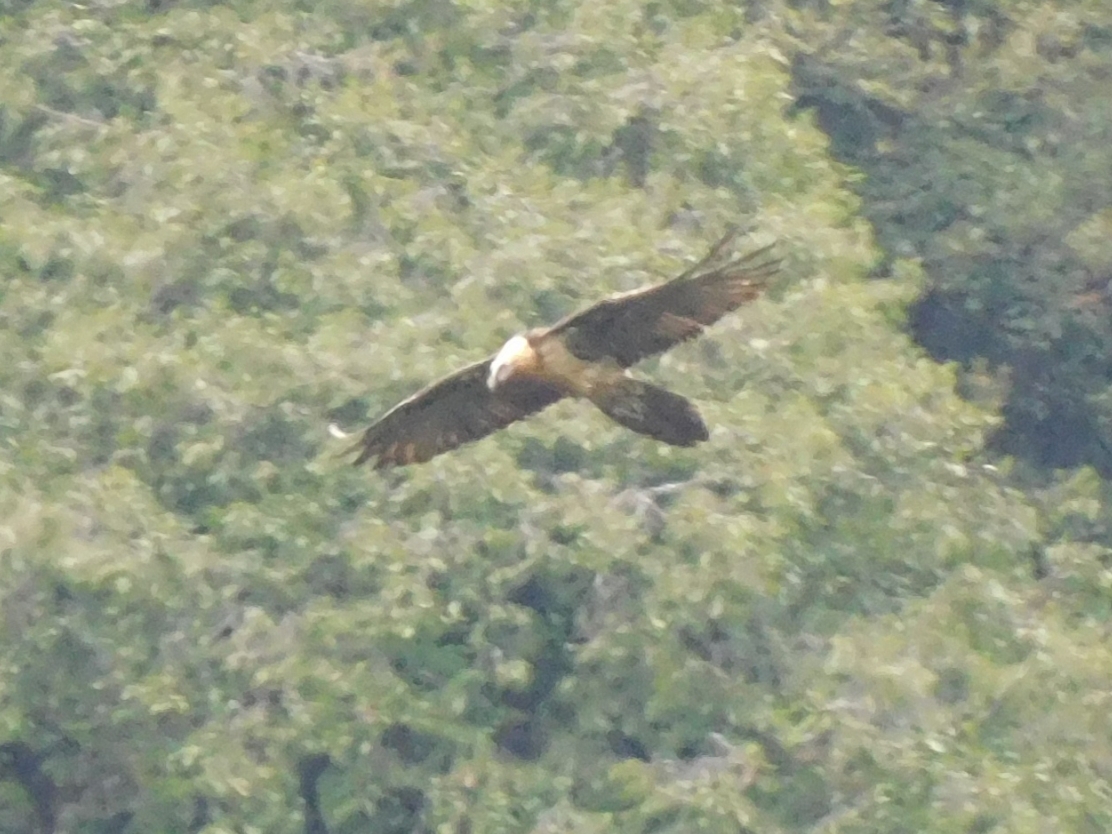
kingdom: Animalia
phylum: Chordata
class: Aves
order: Accipitriformes
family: Accipitridae
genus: Gypaetus
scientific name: Gypaetus barbatus
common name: Bearded vulture
